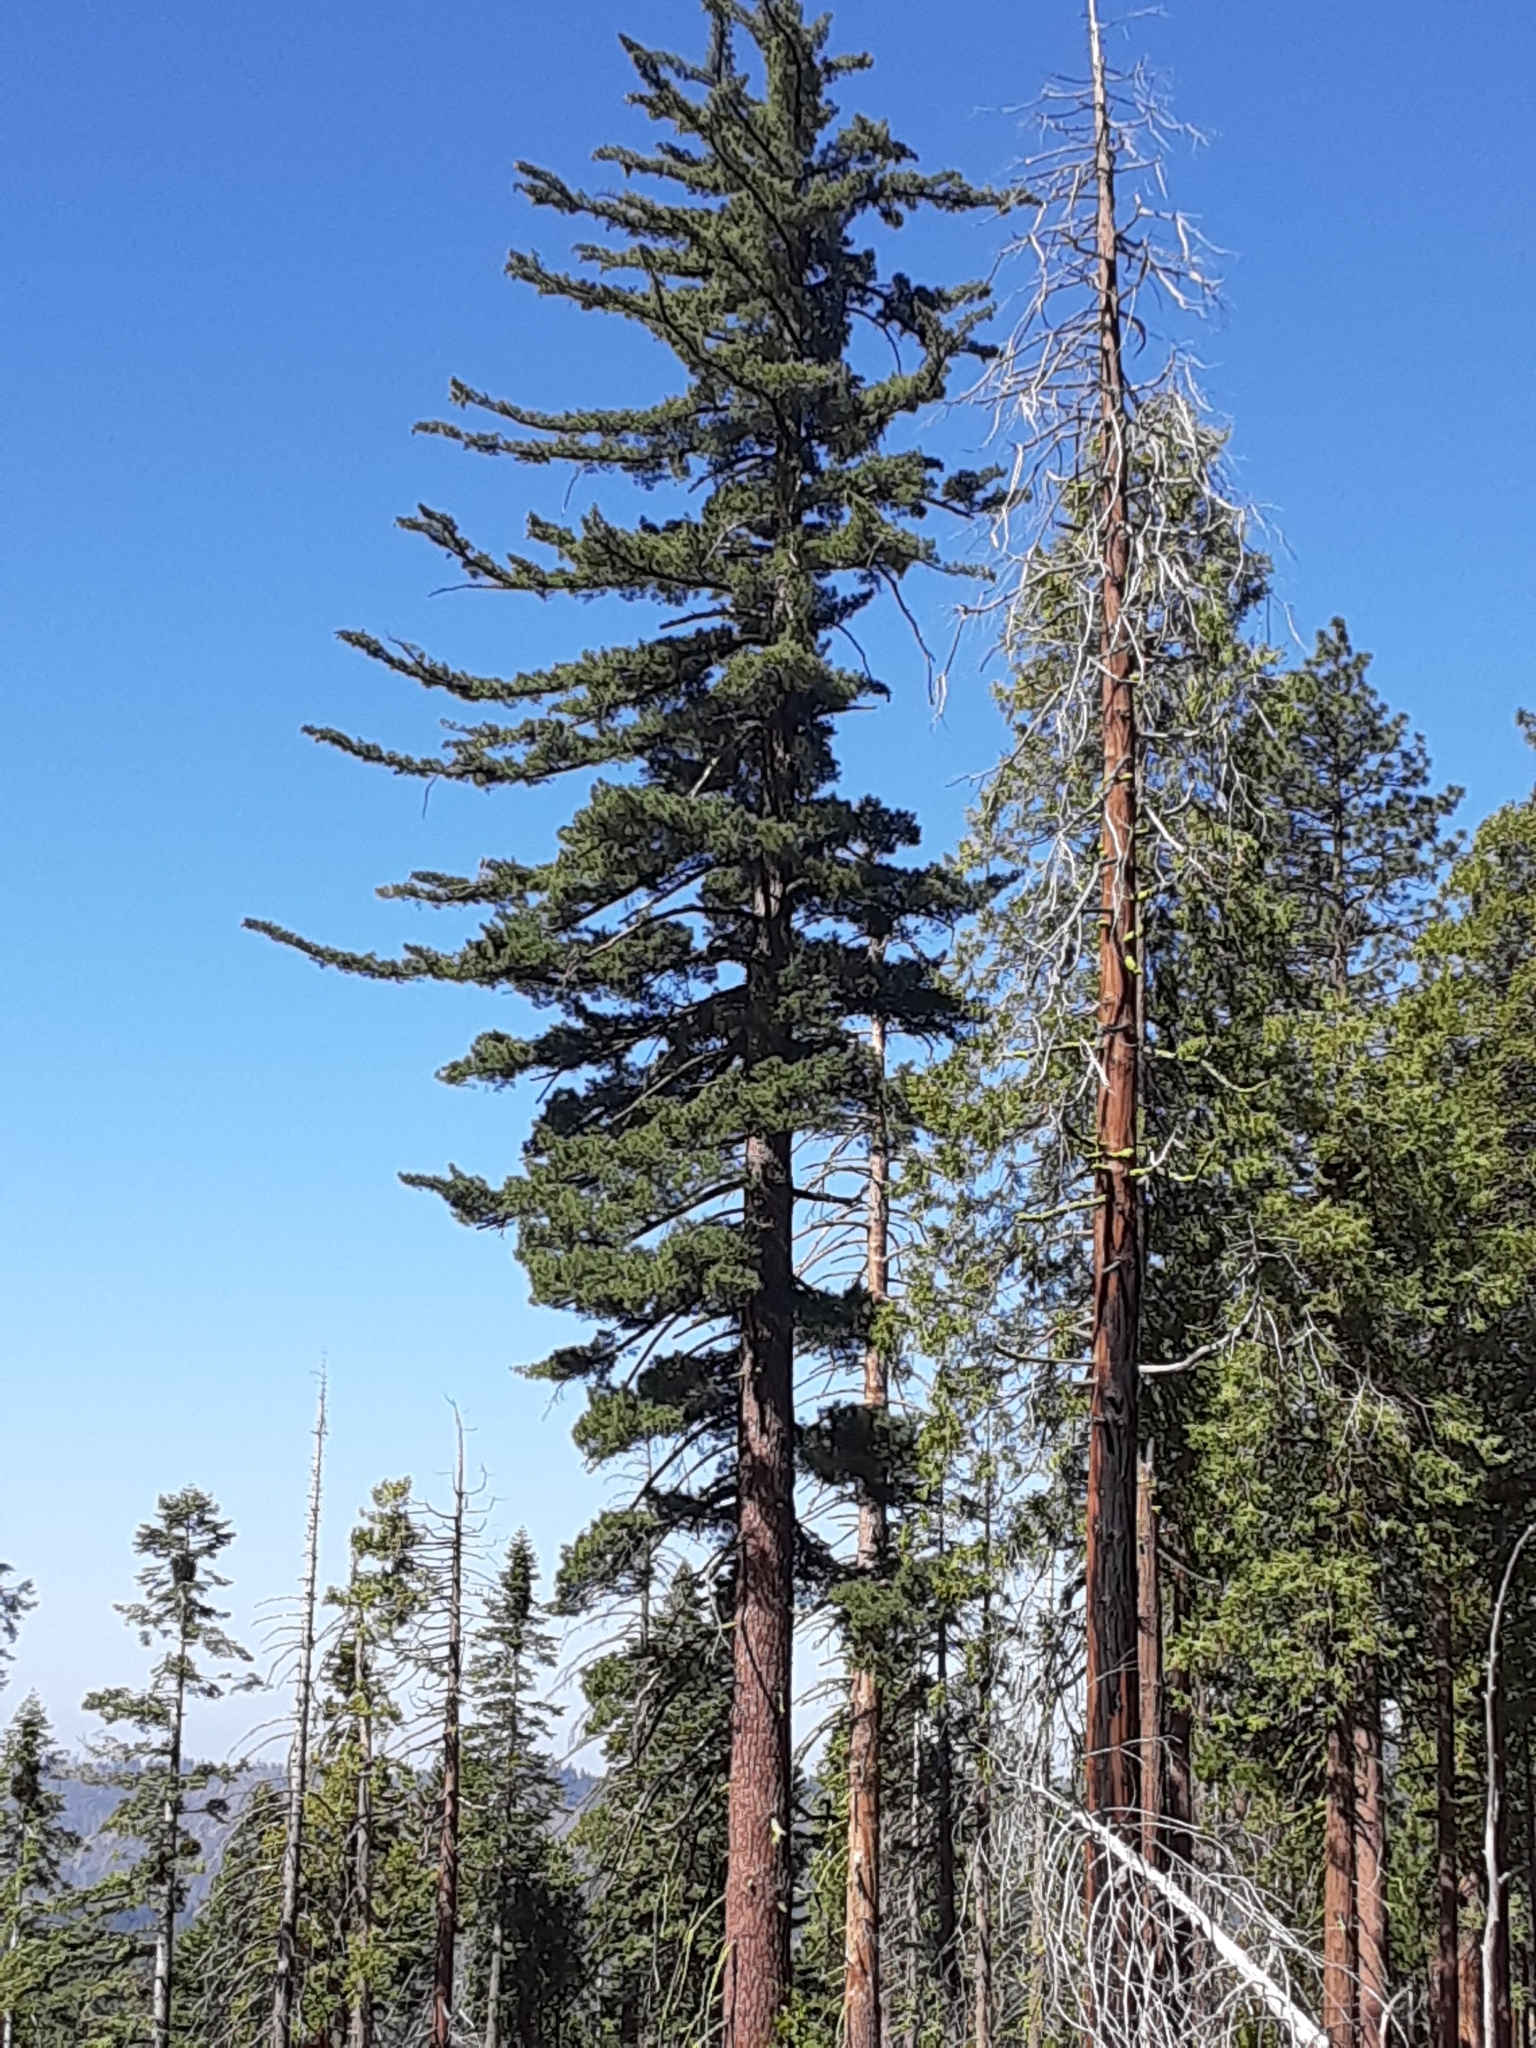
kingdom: Plantae
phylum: Tracheophyta
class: Pinopsida
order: Pinales
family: Pinaceae
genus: Pinus
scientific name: Pinus lambertiana
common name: Sugar pine
